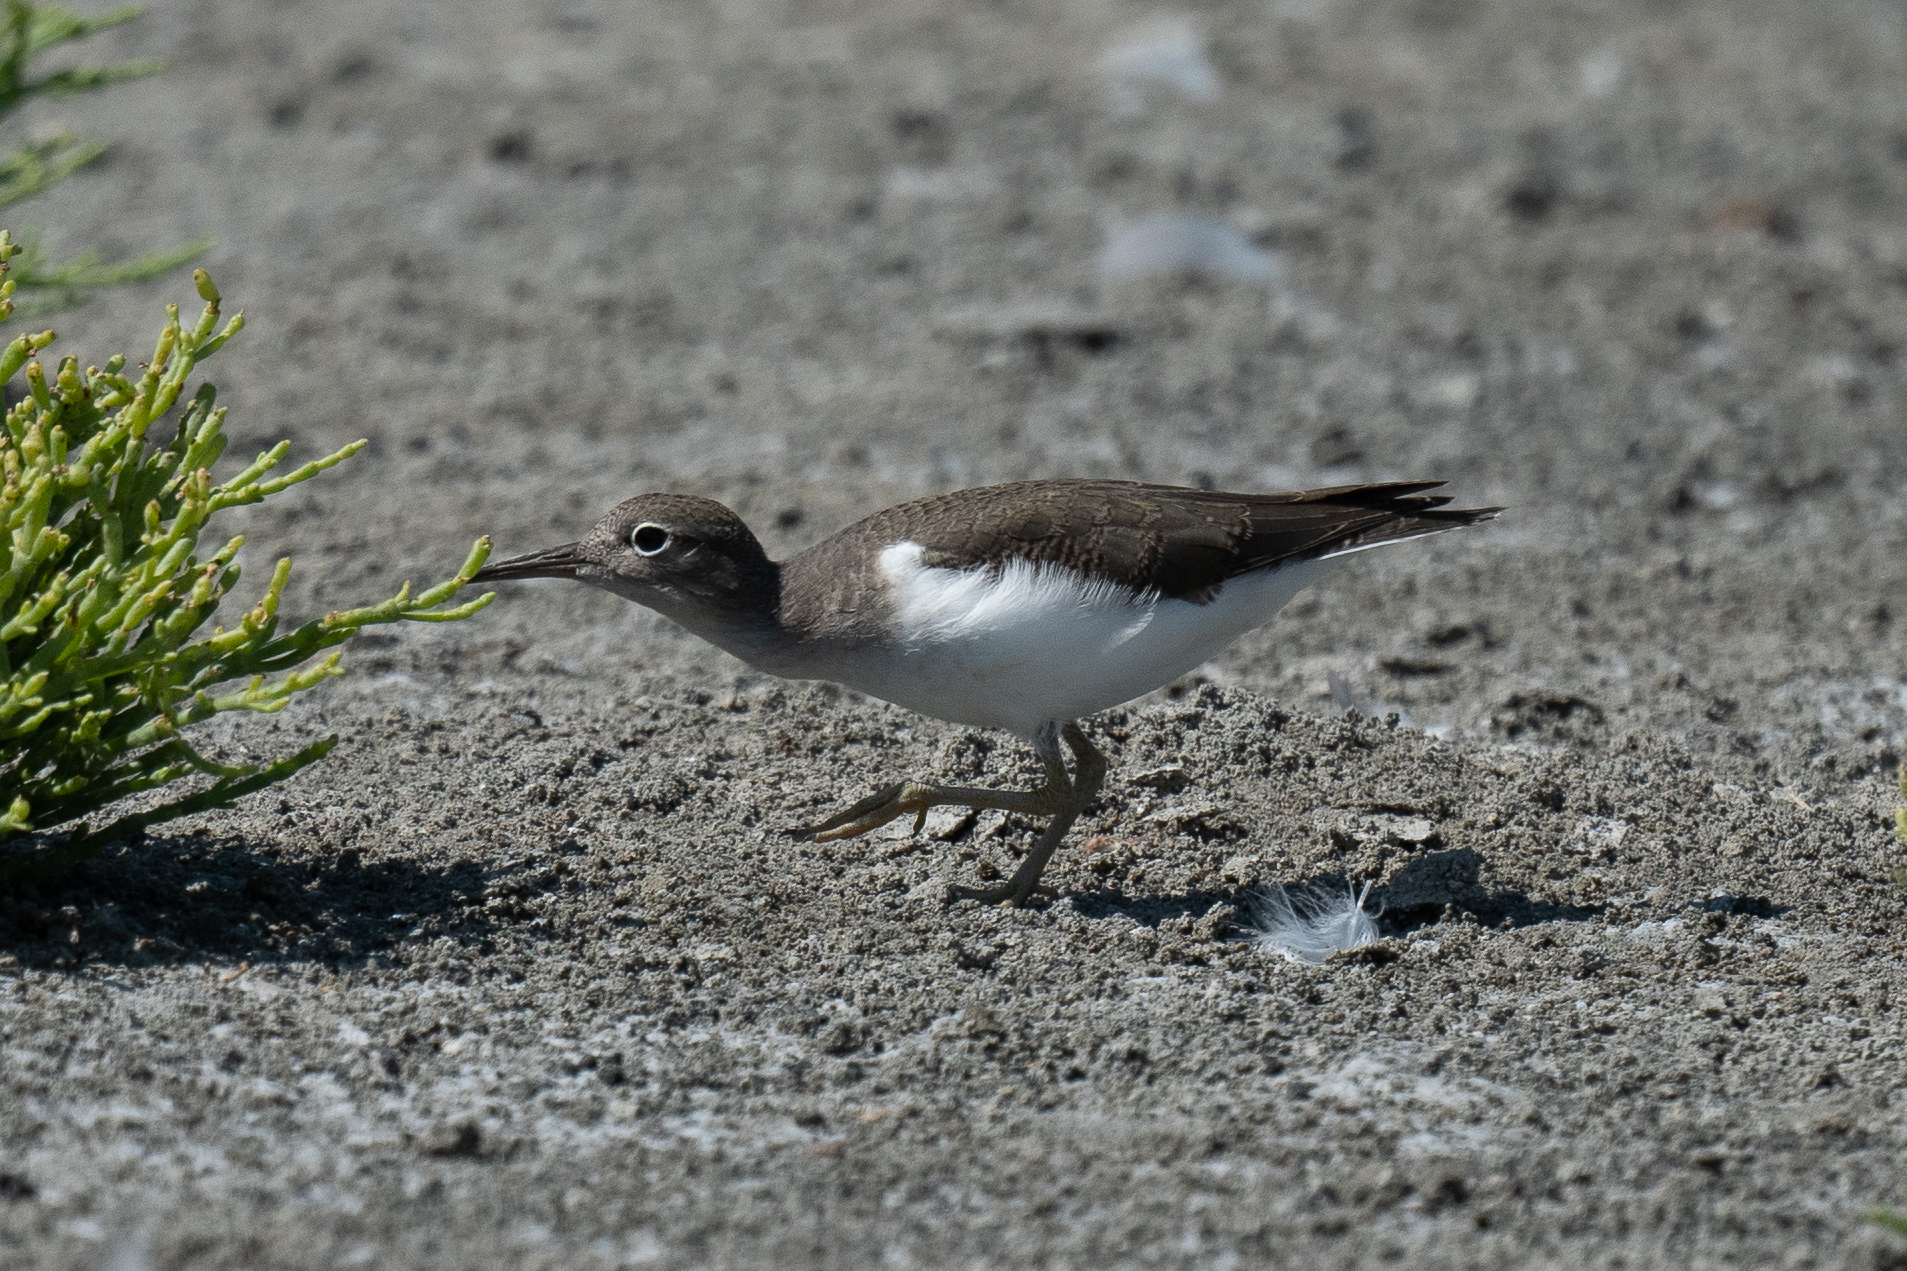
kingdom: Animalia
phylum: Chordata
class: Aves
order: Charadriiformes
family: Scolopacidae
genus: Actitis
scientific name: Actitis macularius
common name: Spotted sandpiper
